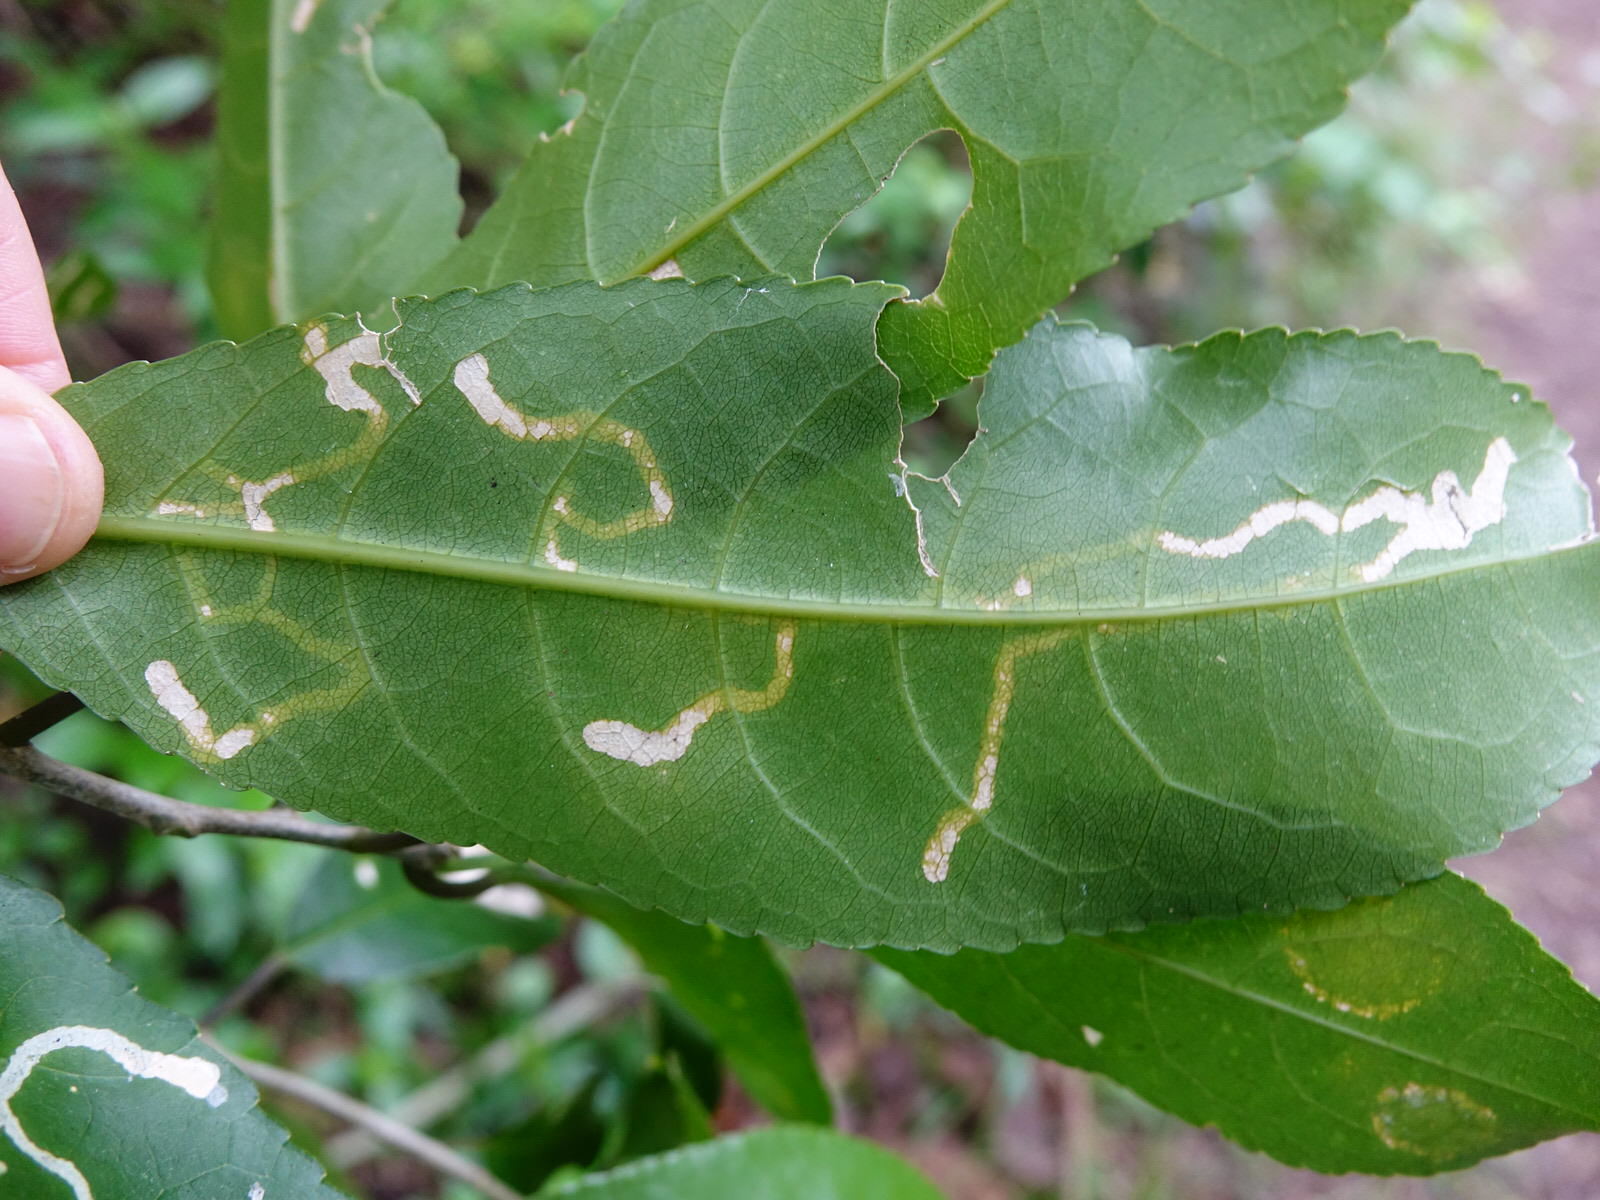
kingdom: Animalia
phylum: Arthropoda
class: Insecta
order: Diptera
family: Agromyzidae
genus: Liriomyza
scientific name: Liriomyza flavolateralis
